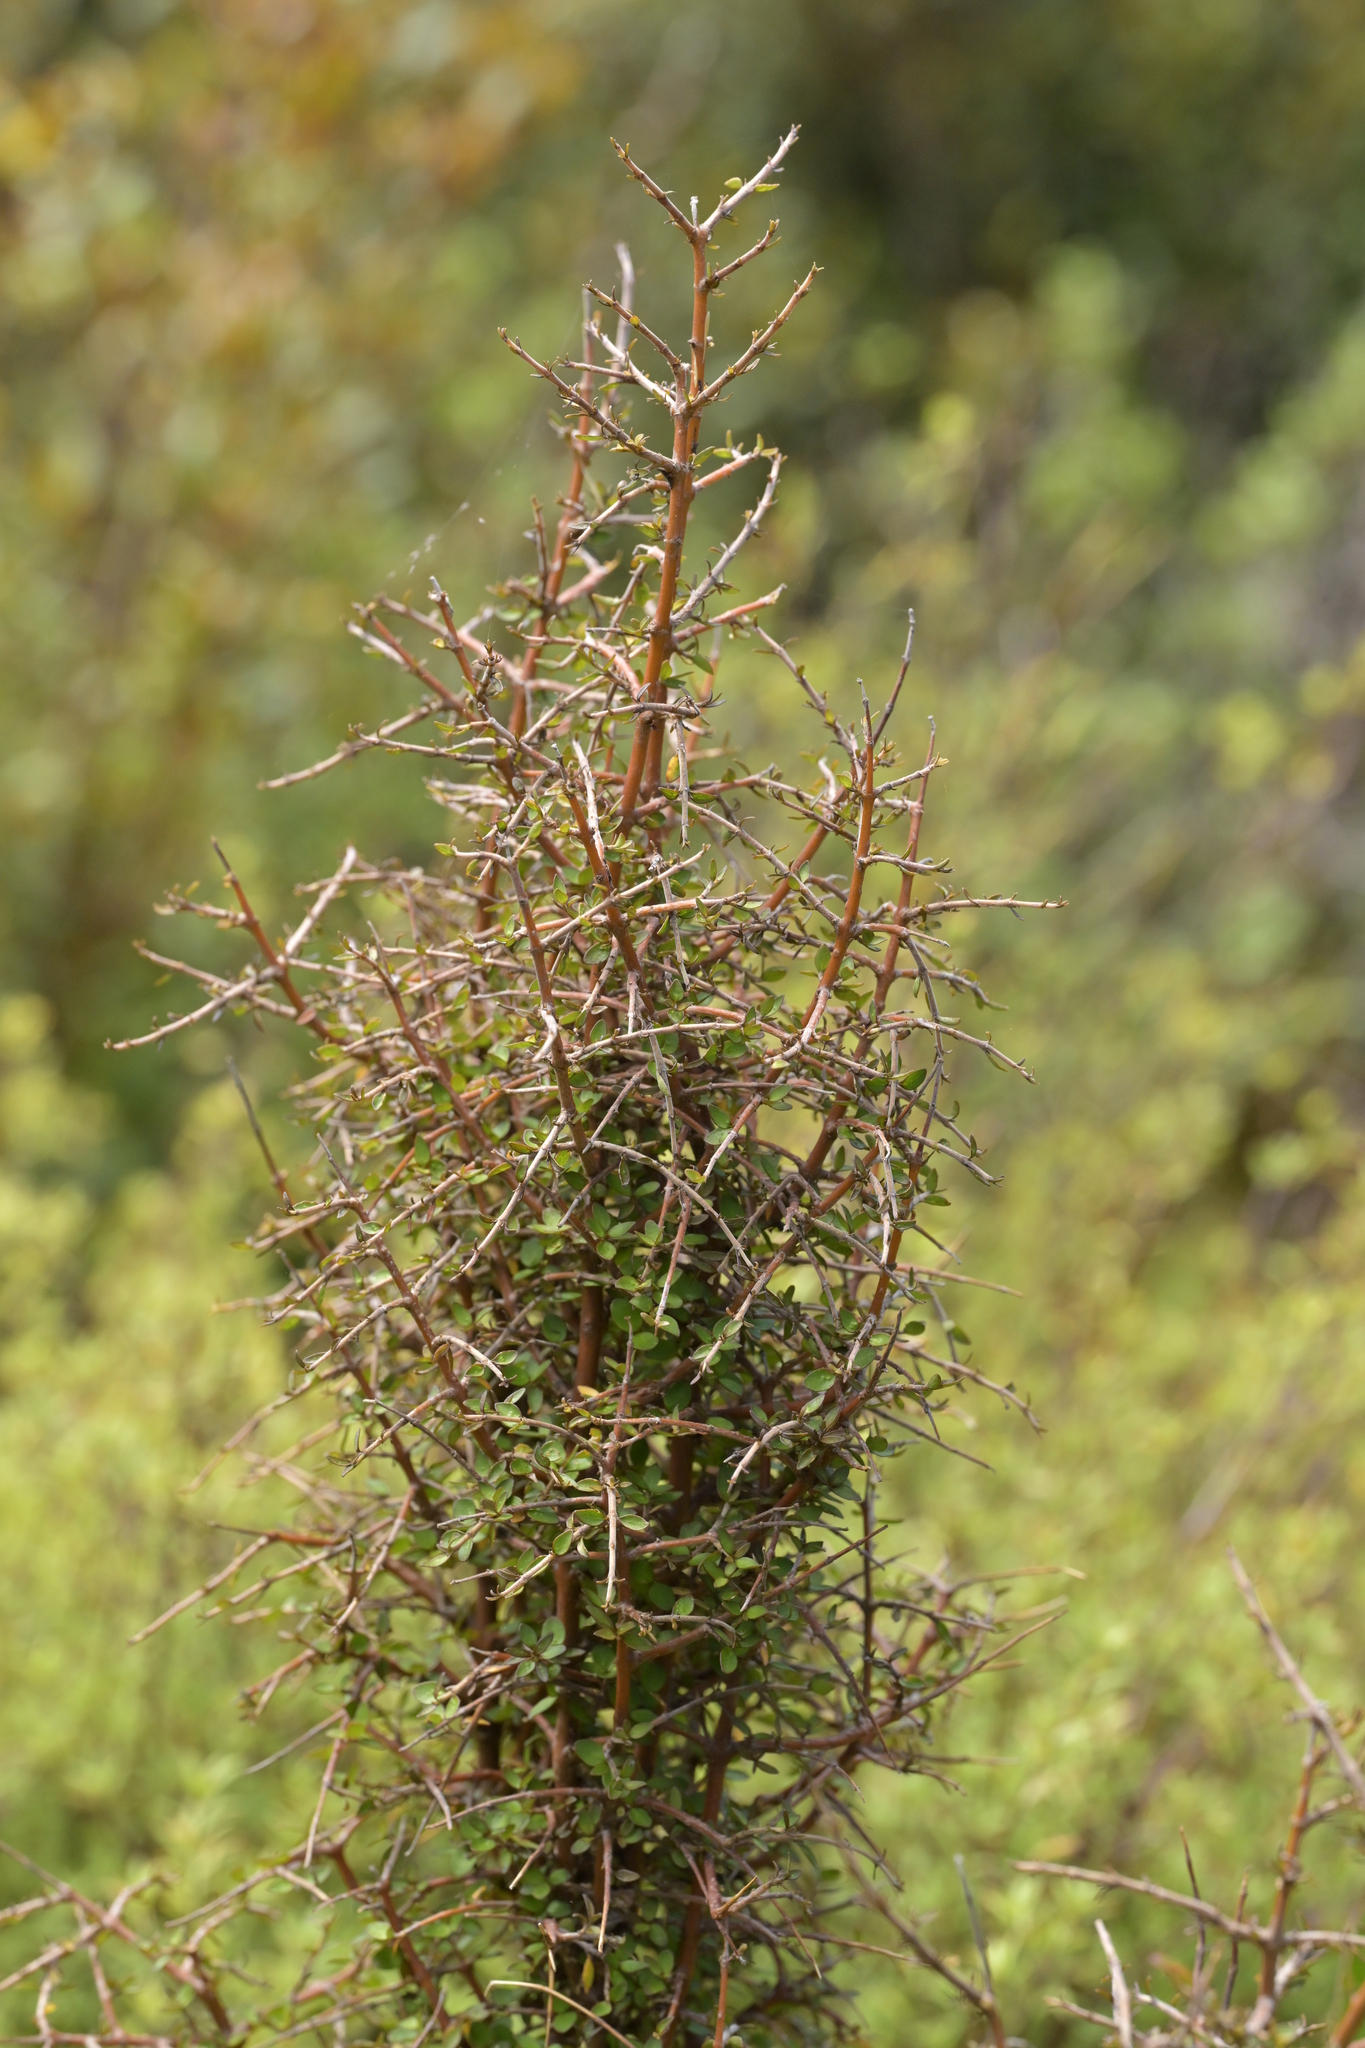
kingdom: Plantae
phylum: Tracheophyta
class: Magnoliopsida
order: Gentianales
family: Rubiaceae
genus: Coprosma
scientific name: Coprosma rhamnoides
